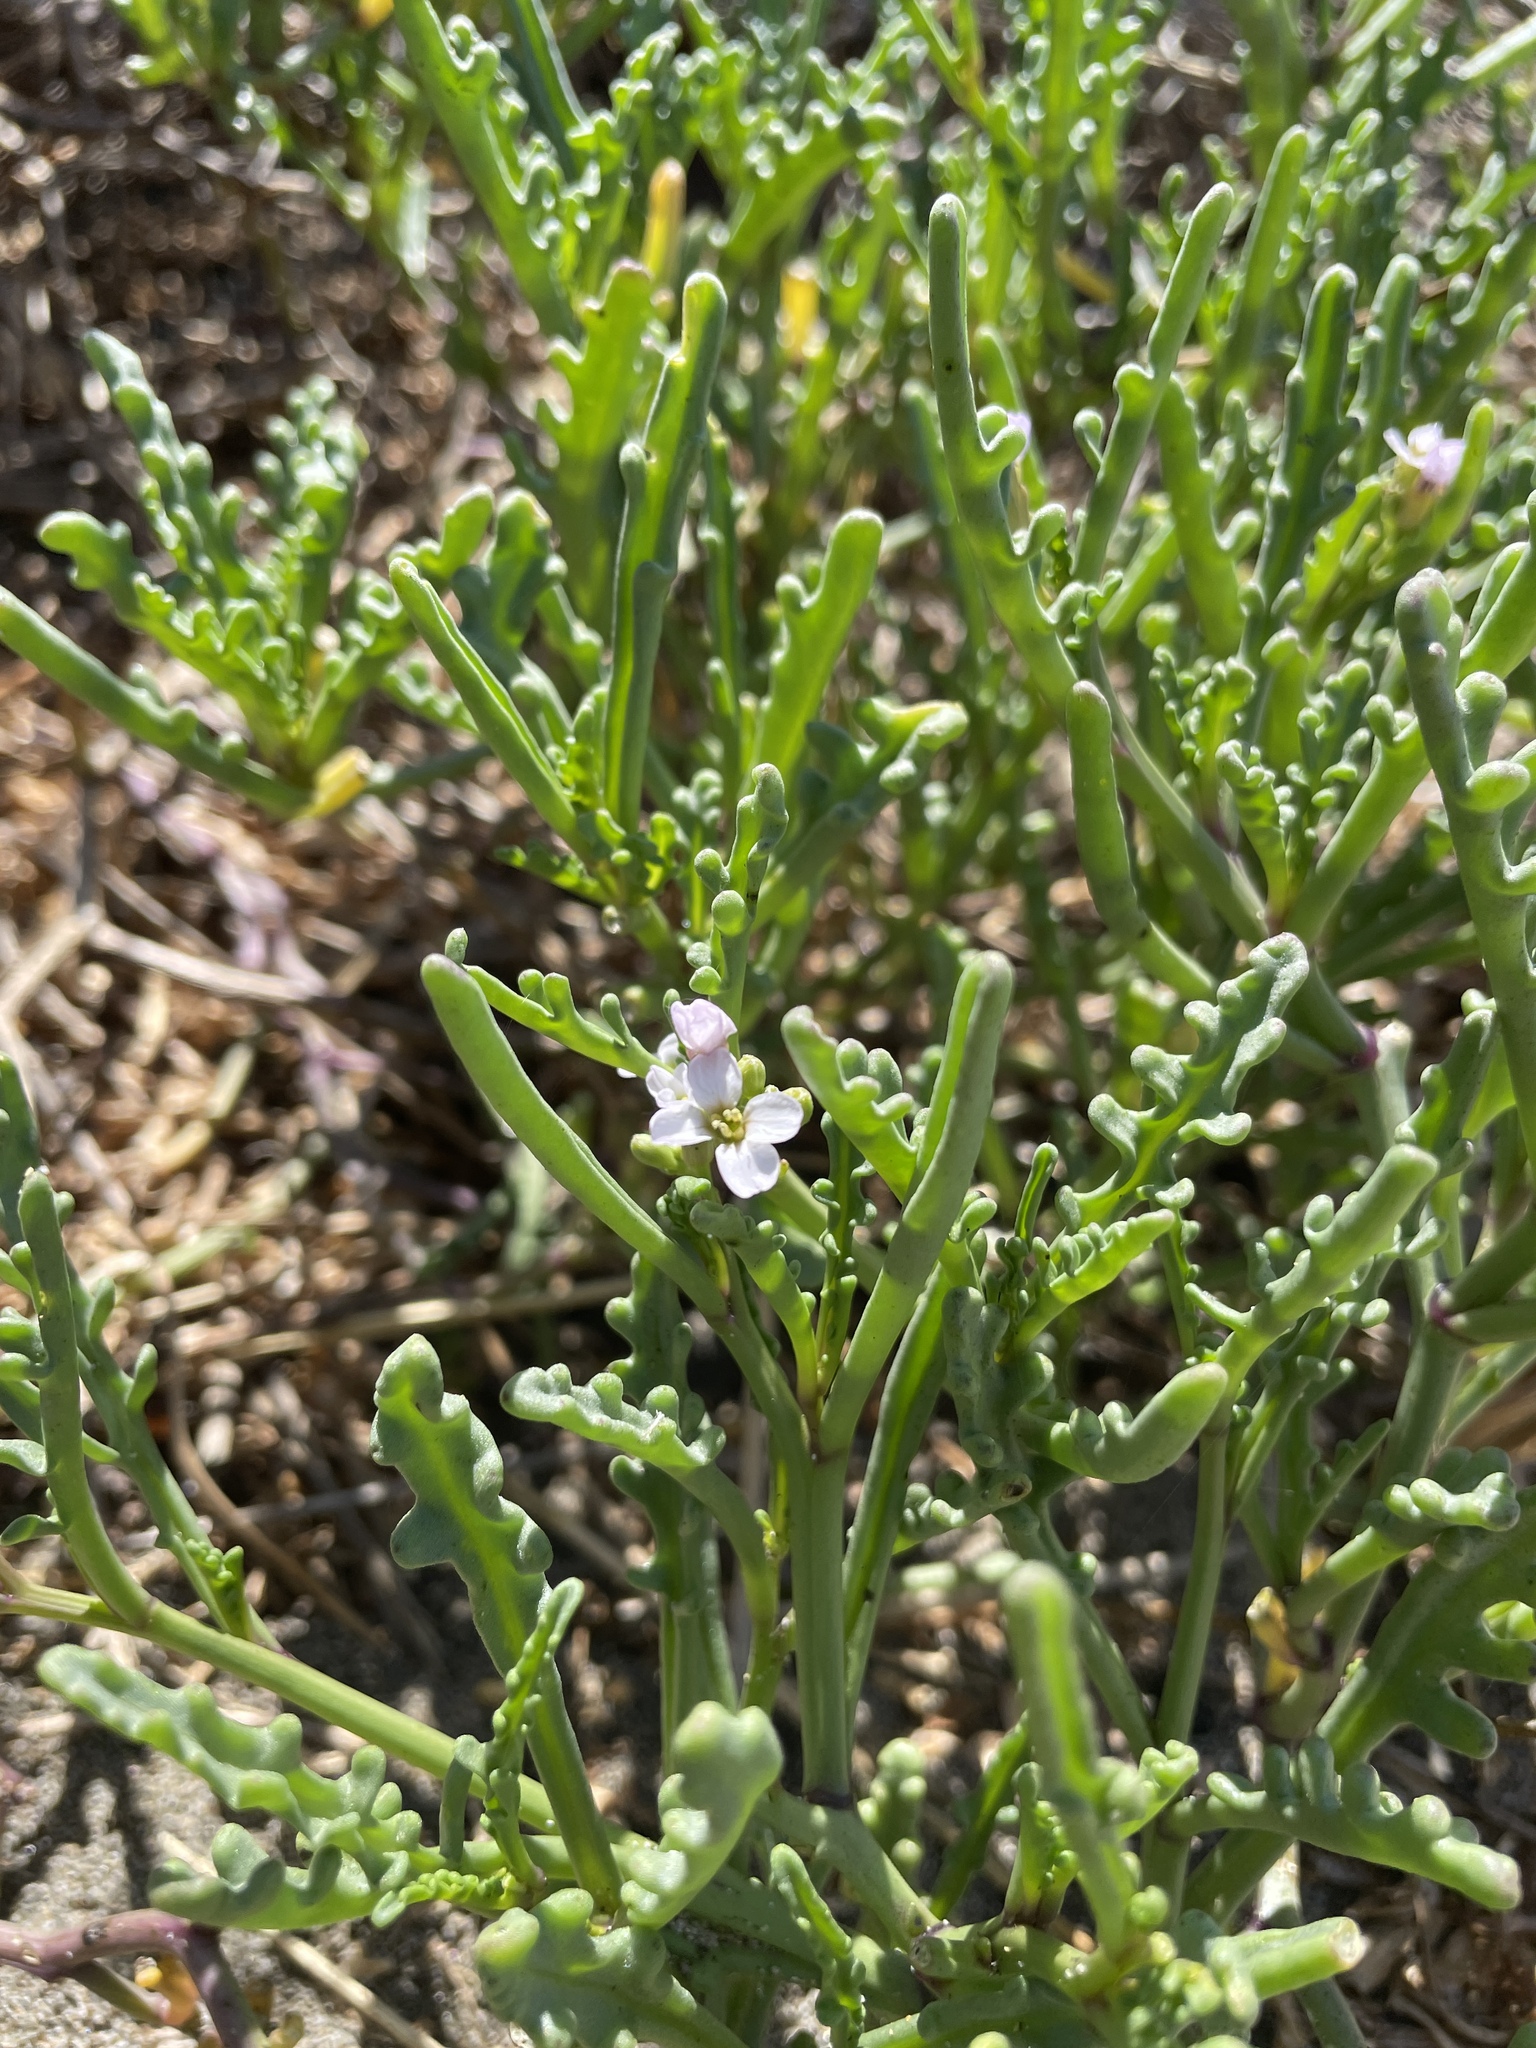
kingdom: Plantae
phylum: Tracheophyta
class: Magnoliopsida
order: Brassicales
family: Brassicaceae
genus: Cakile
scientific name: Cakile maritima
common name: Sea rocket
